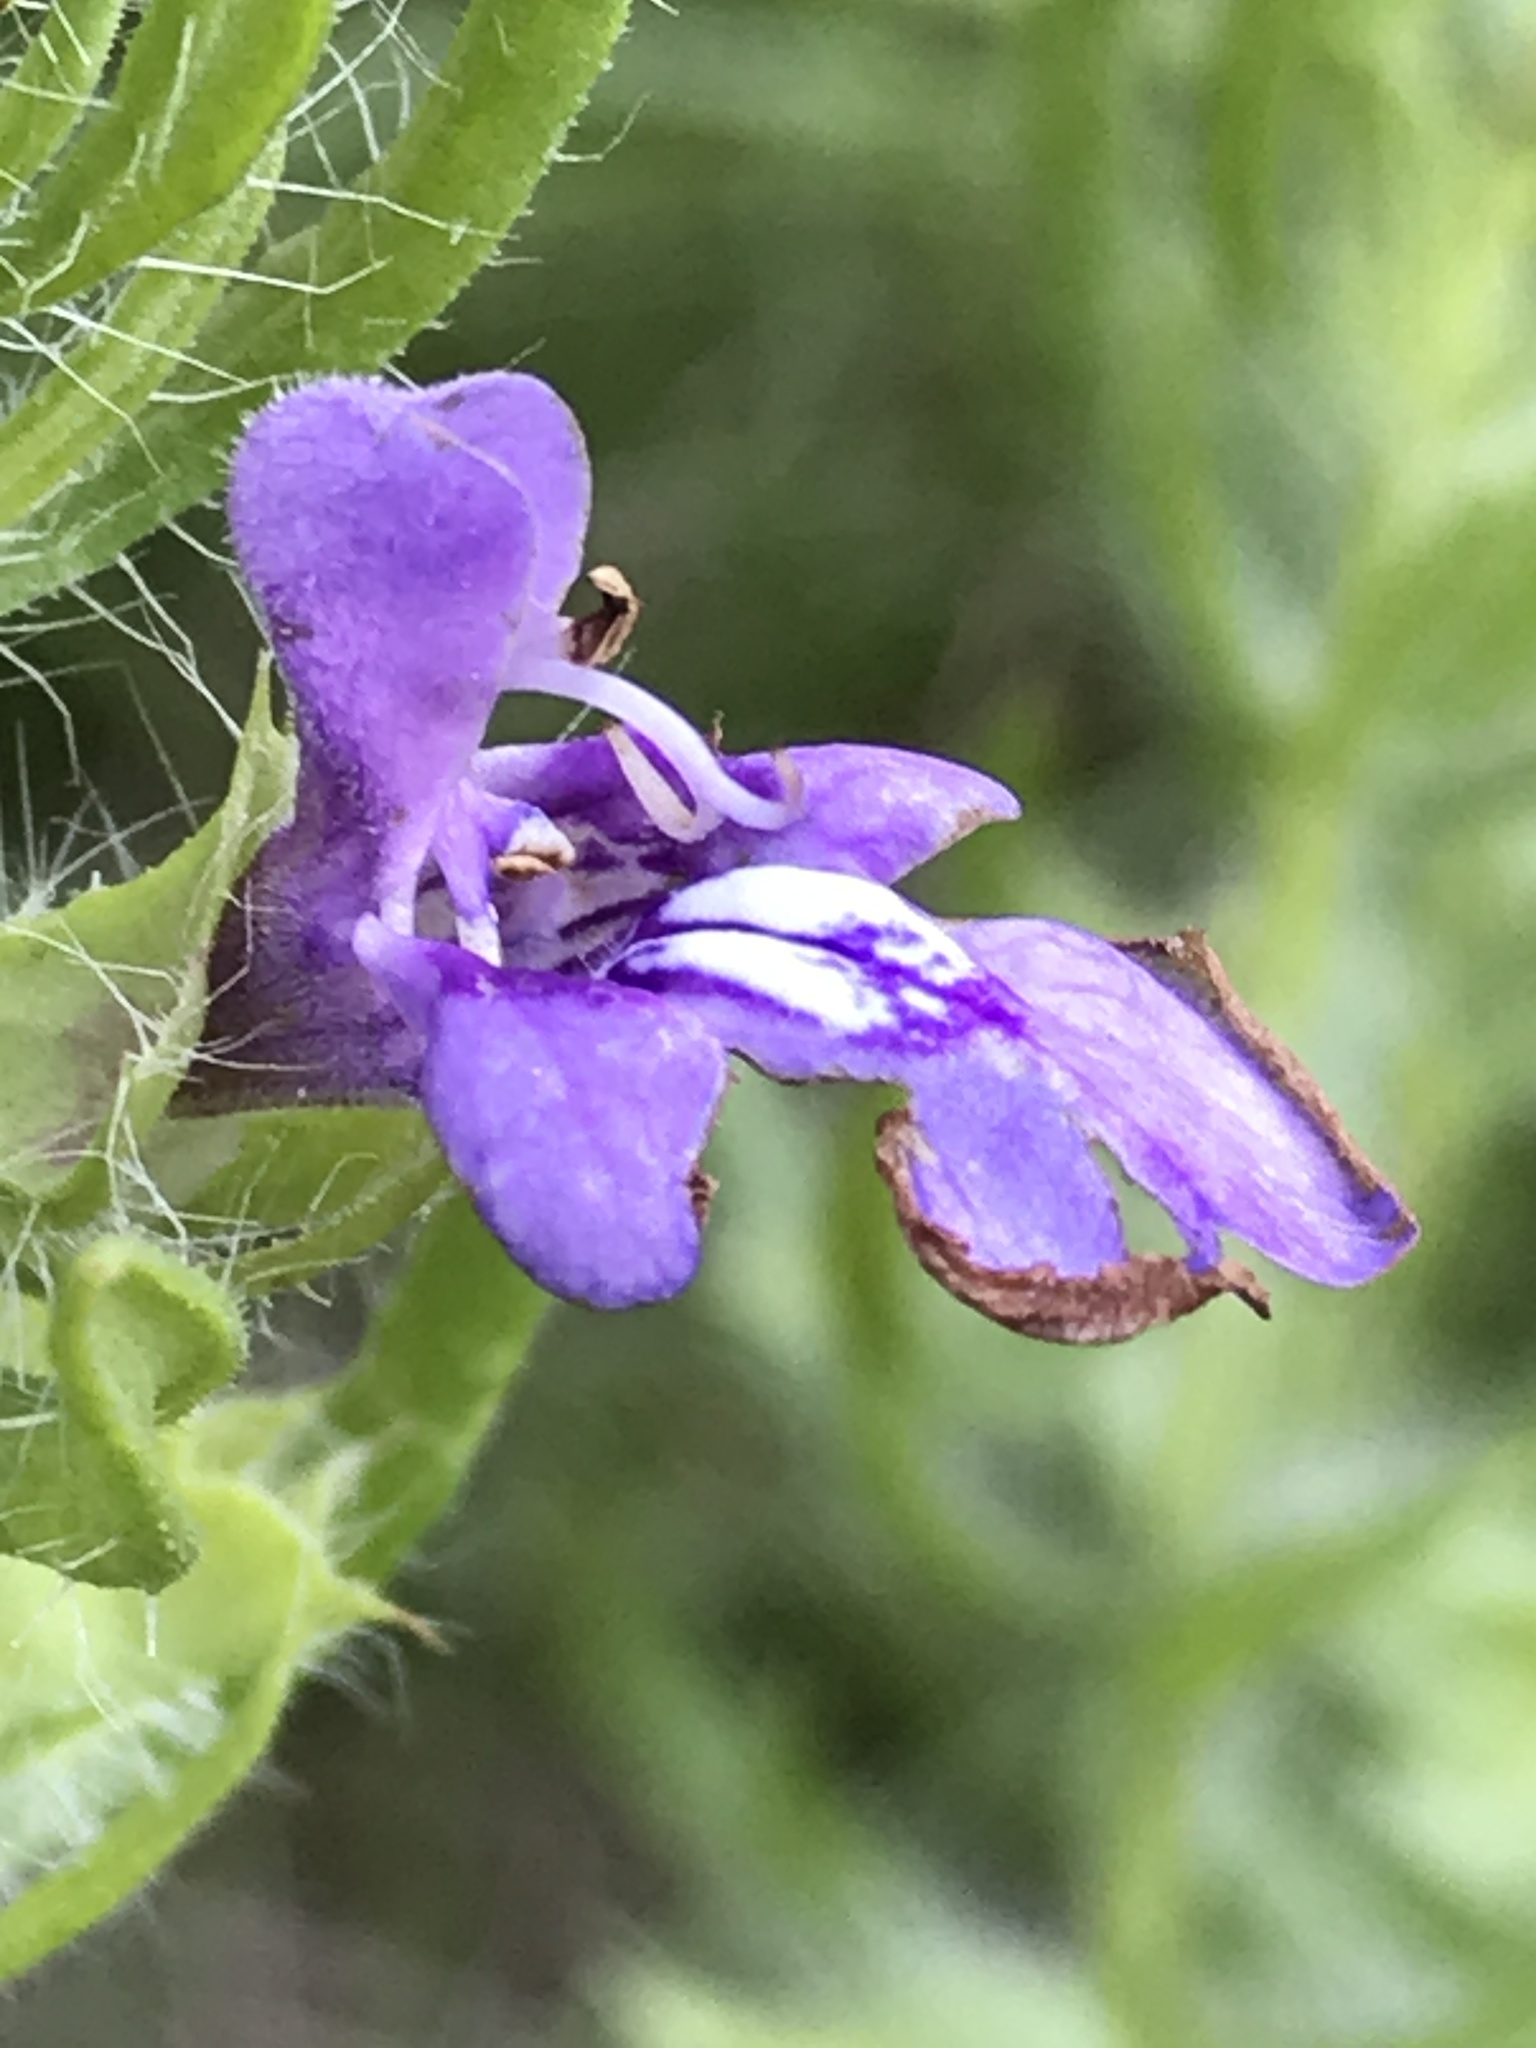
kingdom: Plantae
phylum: Tracheophyta
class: Magnoliopsida
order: Lamiales
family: Lamiaceae
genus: Salvia
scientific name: Salvia texana
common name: Texas sage
